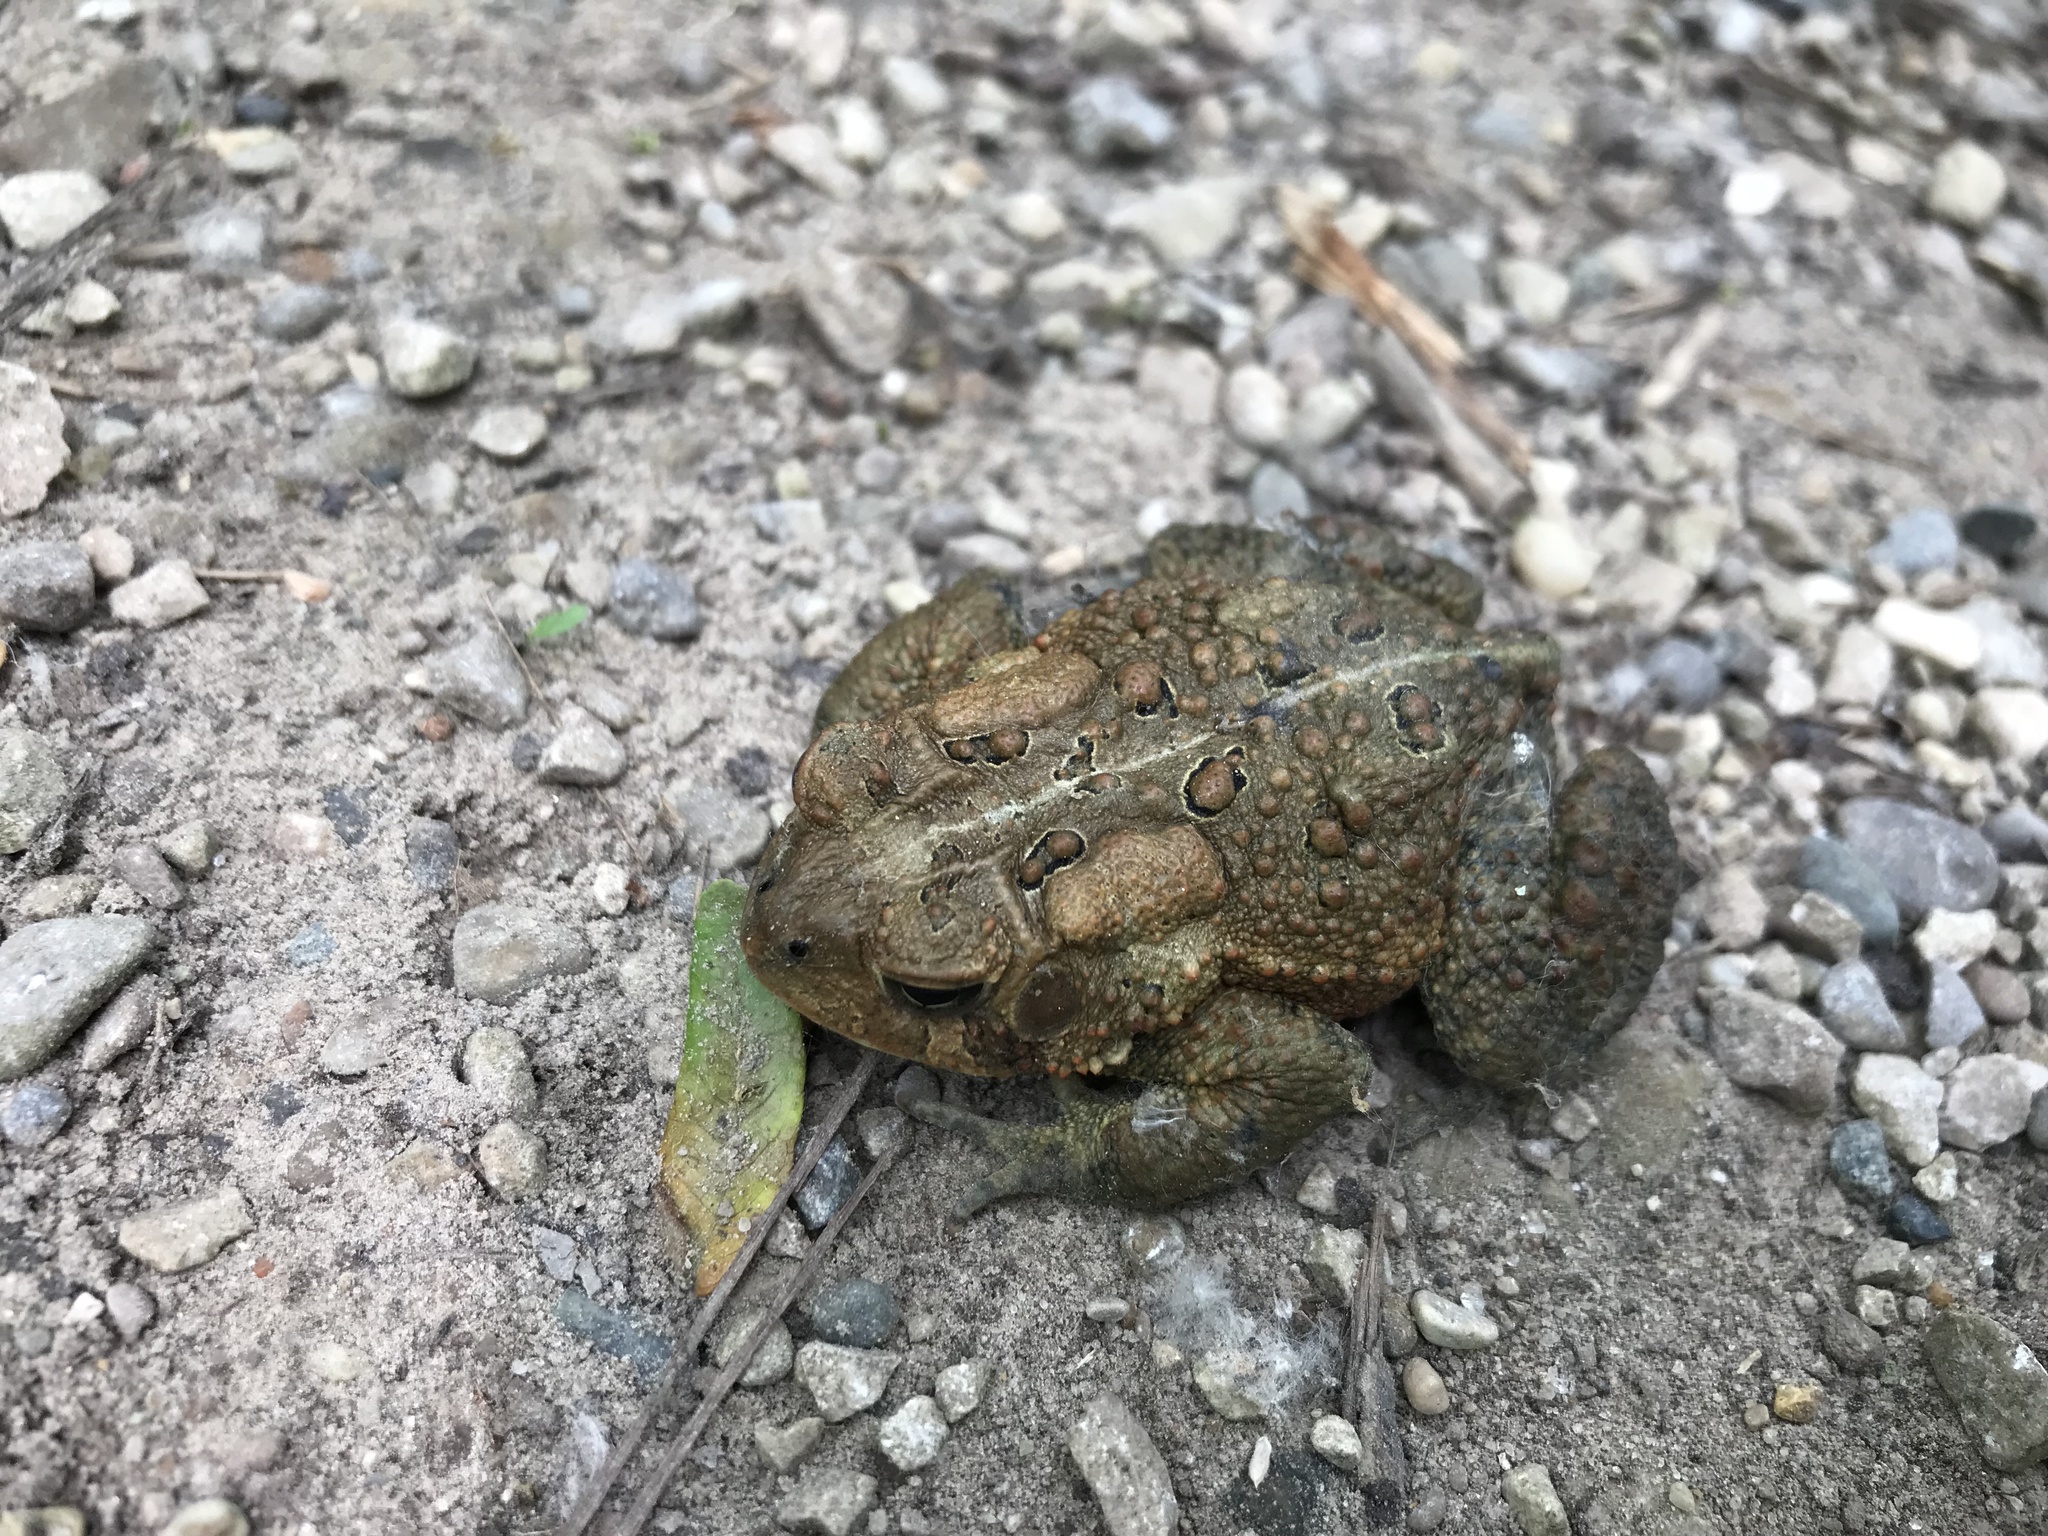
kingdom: Animalia
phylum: Chordata
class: Amphibia
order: Anura
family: Bufonidae
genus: Anaxyrus
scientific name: Anaxyrus americanus
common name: American toad
